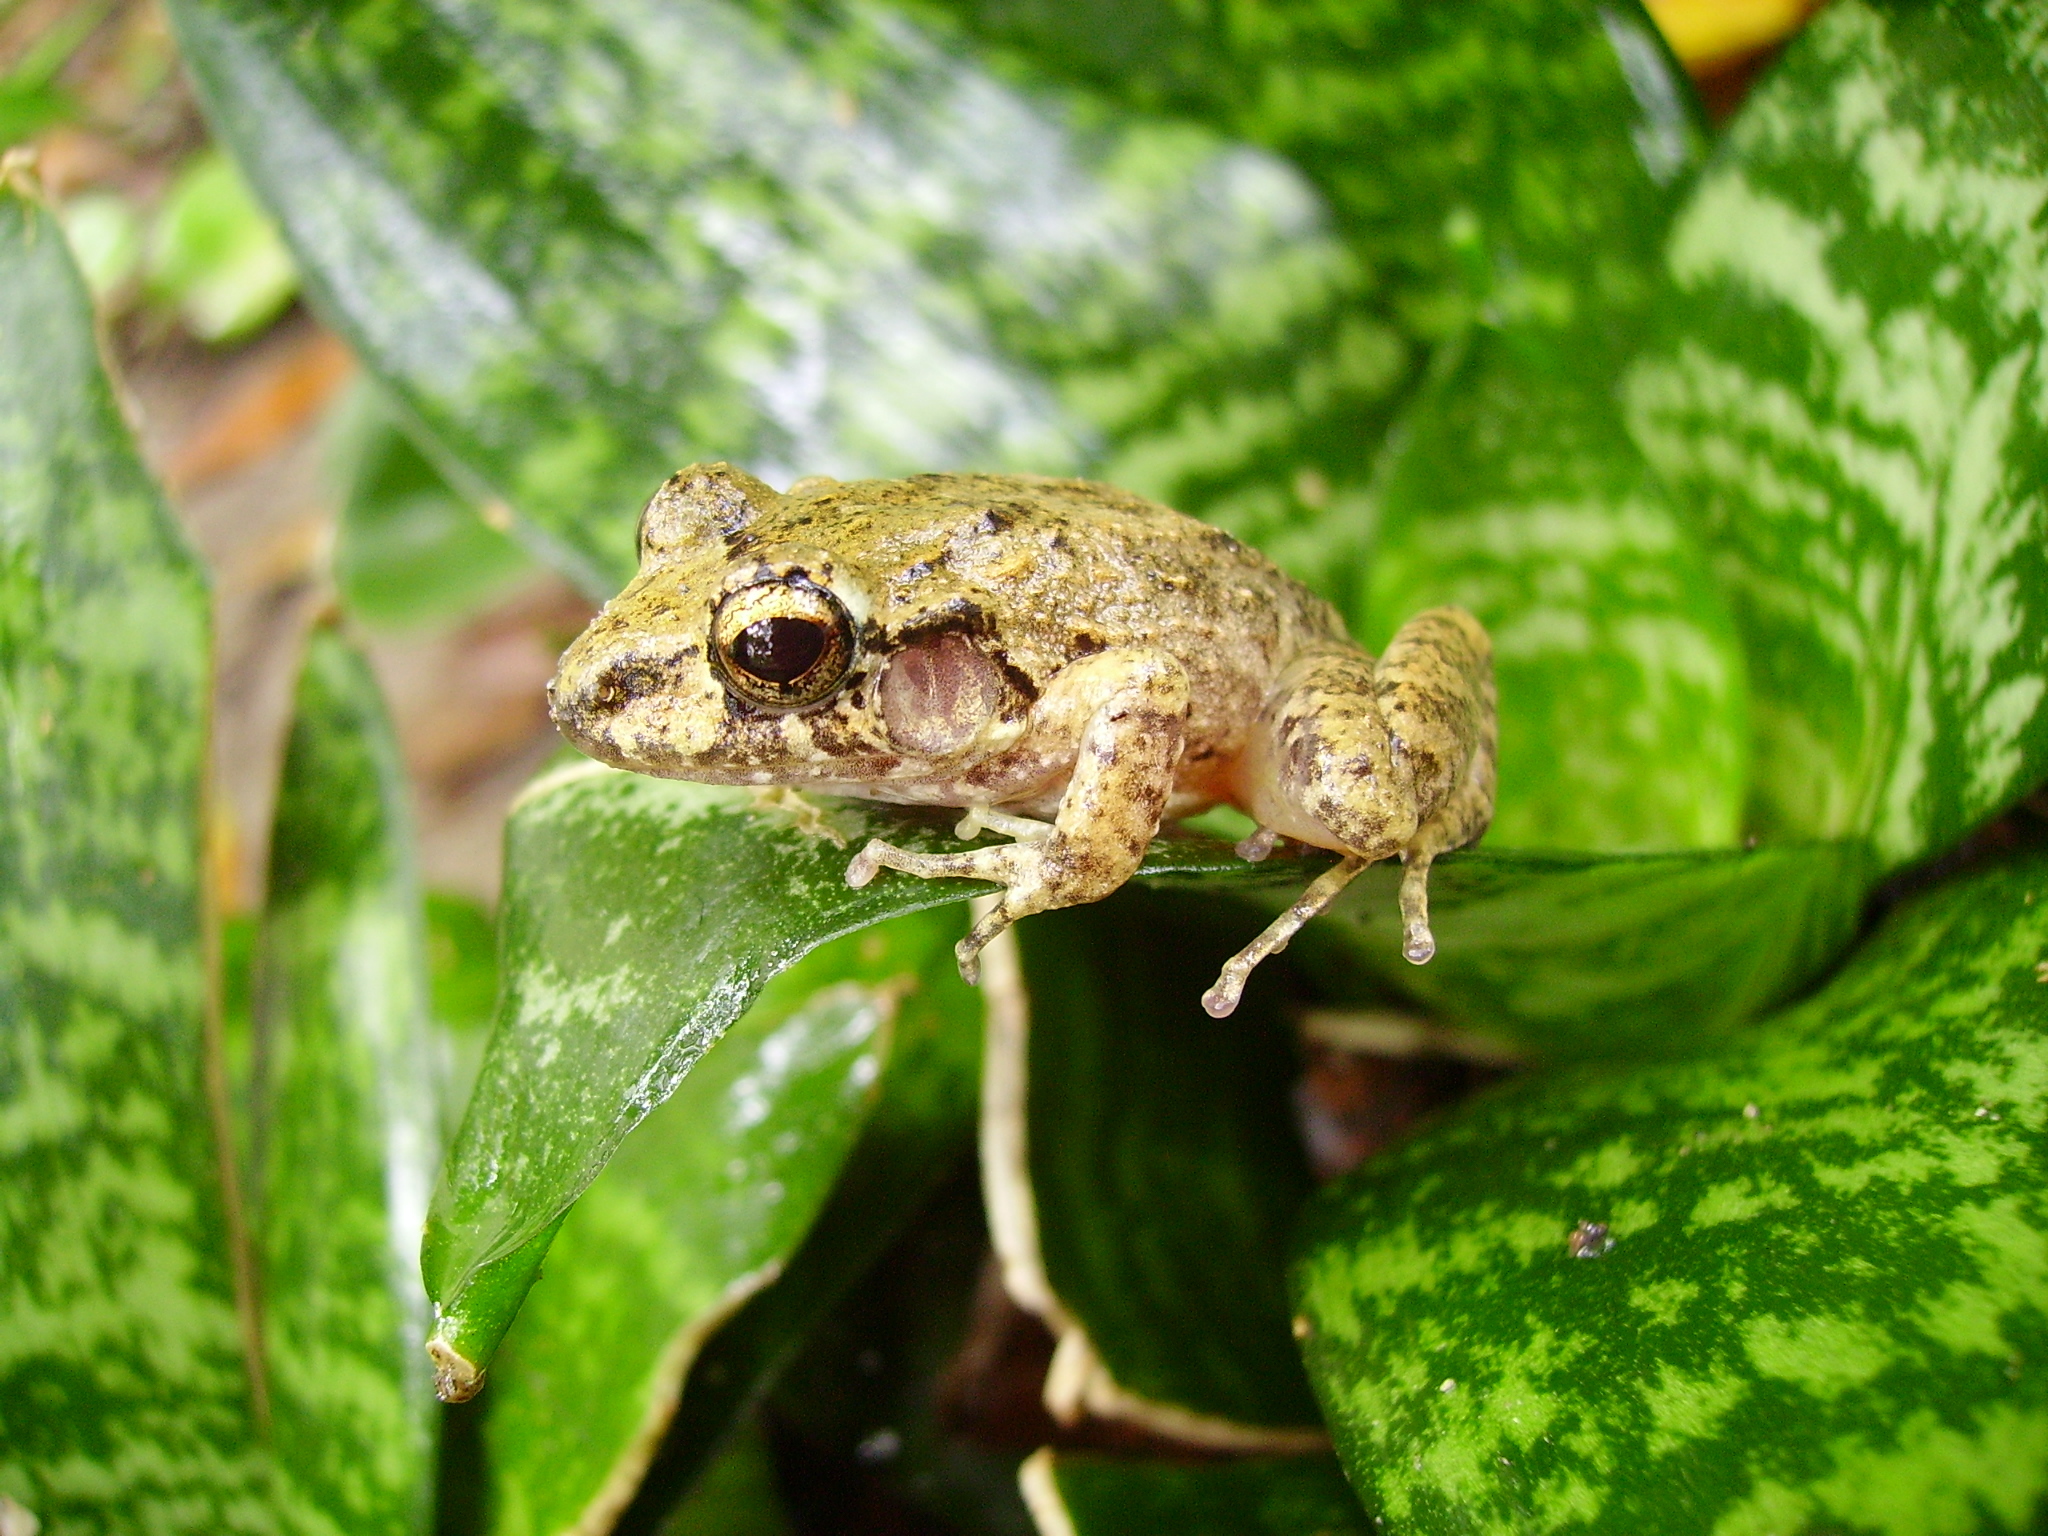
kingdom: Animalia
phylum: Chordata
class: Amphibia
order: Anura
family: Craugastoridae
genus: Craugastor
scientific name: Craugastor rupinius
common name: Cliffy stream frog
